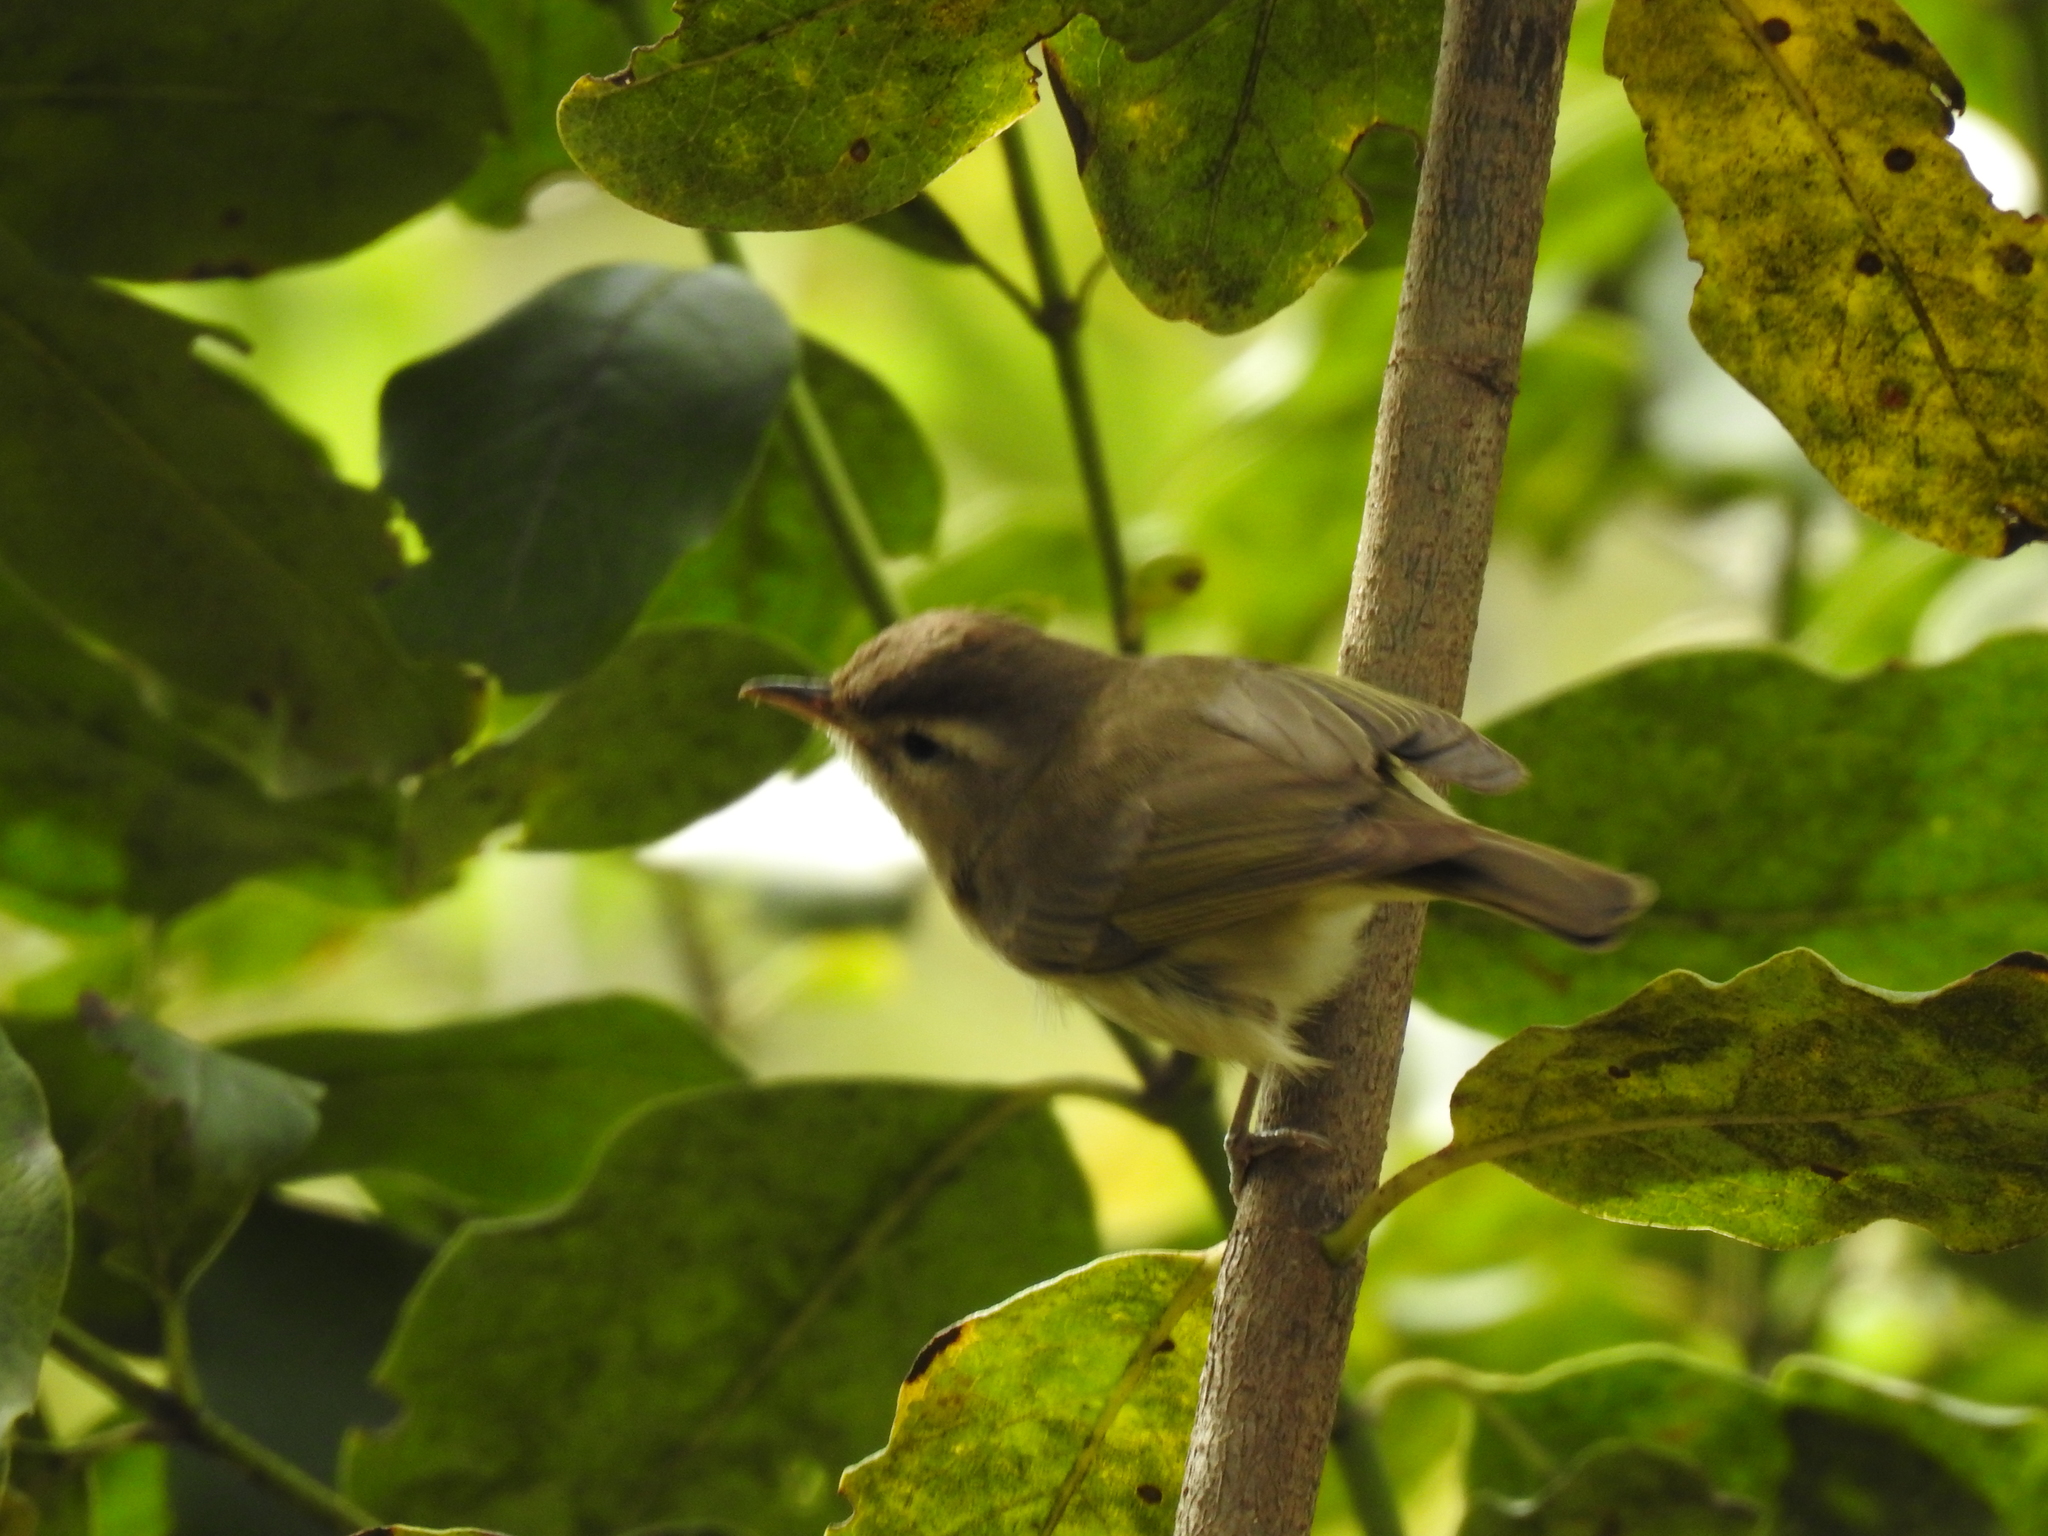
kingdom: Animalia
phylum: Chordata
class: Aves
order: Passeriformes
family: Vireonidae
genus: Vireo
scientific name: Vireo leucophrys
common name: Brown-capped vireo
